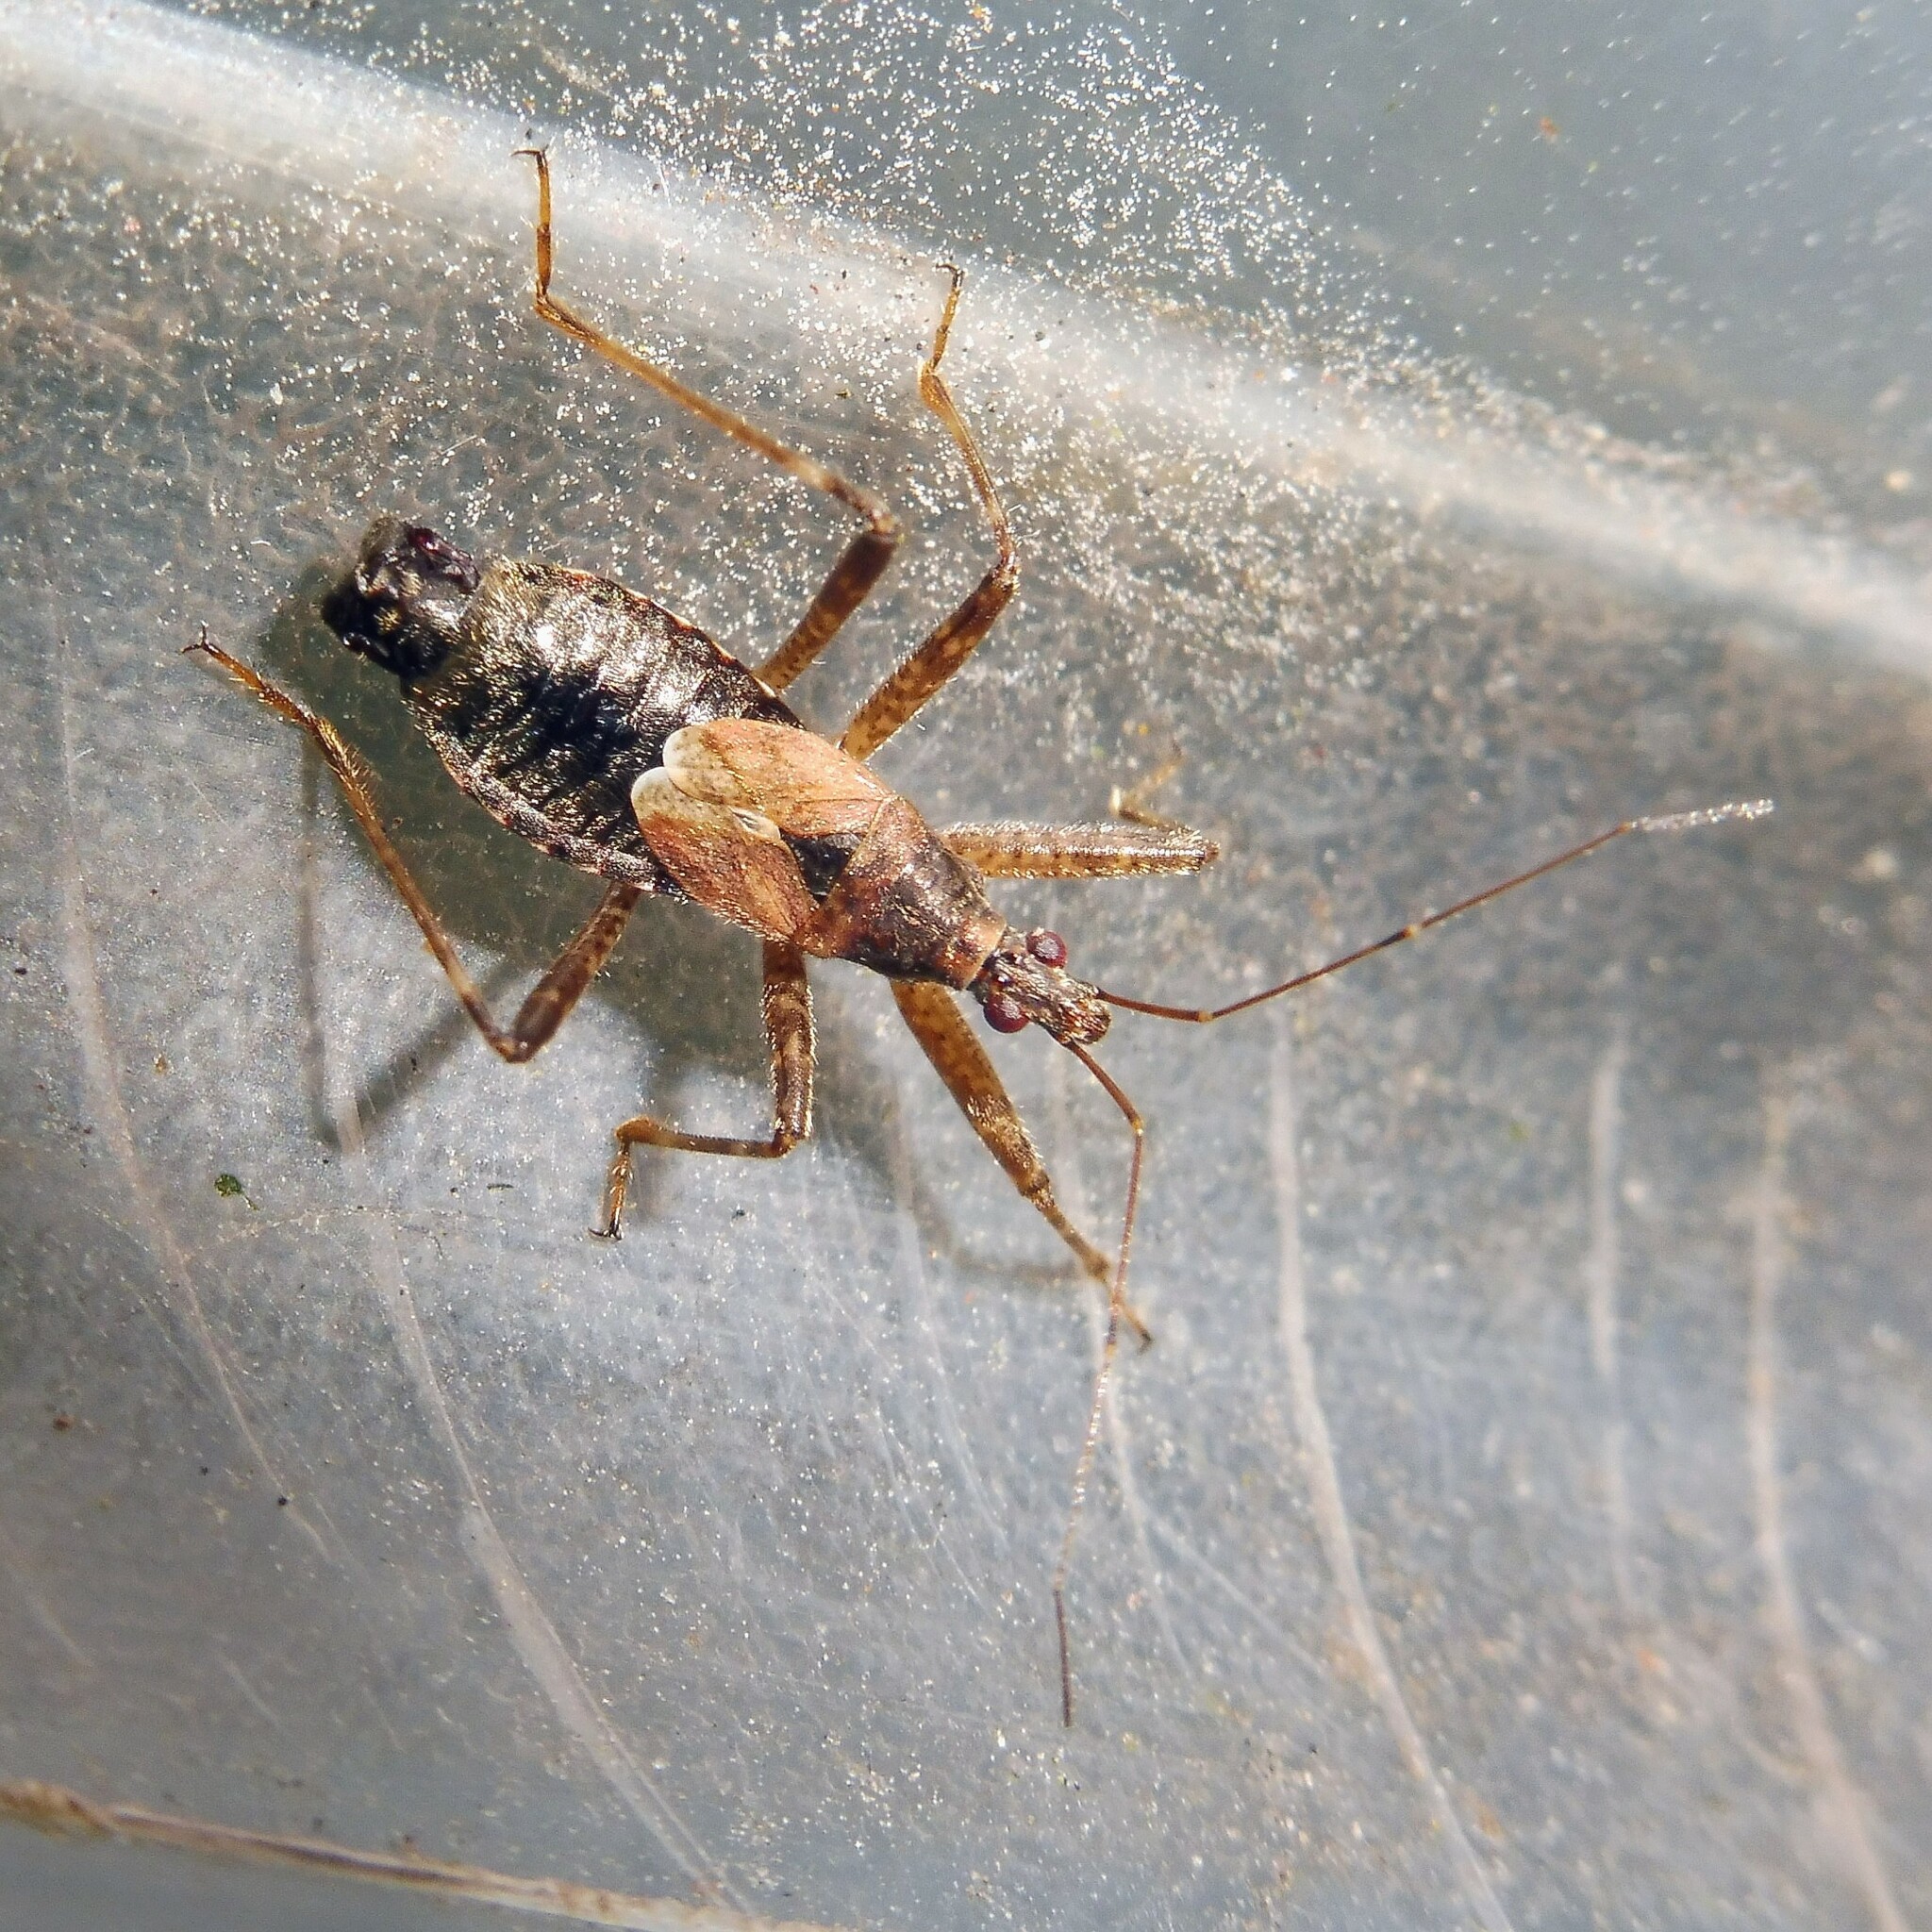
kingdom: Animalia
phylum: Arthropoda
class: Insecta
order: Hemiptera
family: Nabidae
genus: Himacerus
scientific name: Himacerus apterus
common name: Tree damsel bug
